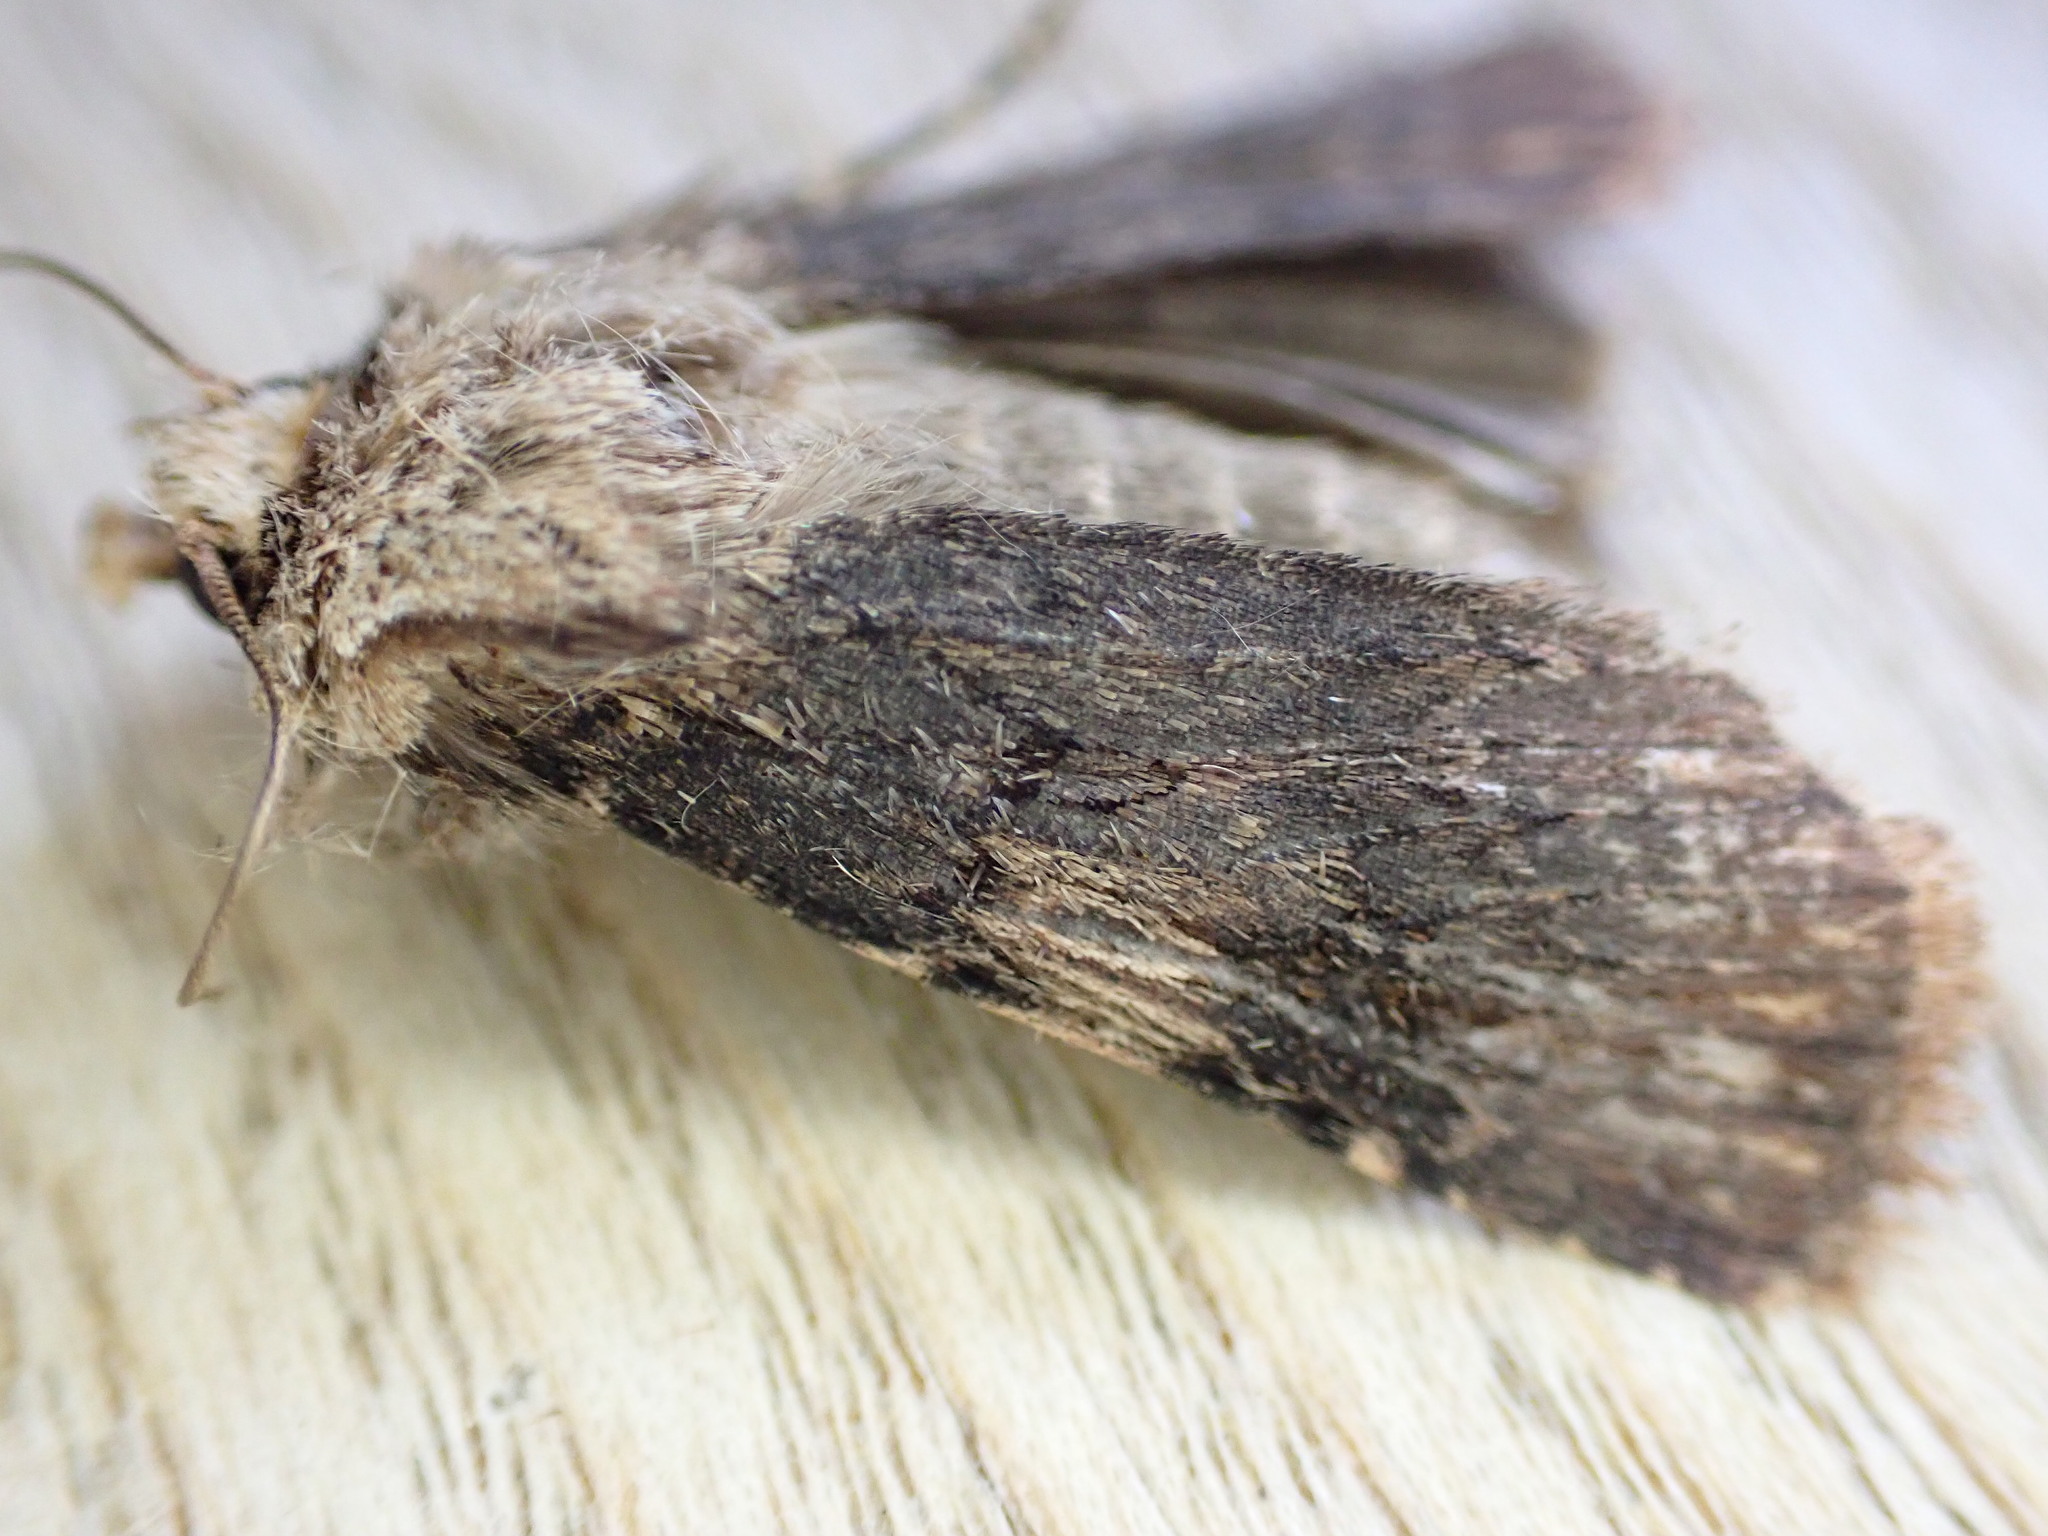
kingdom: Animalia
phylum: Arthropoda
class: Insecta
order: Lepidoptera
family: Noctuidae
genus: Agrotis
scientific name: Agrotis puta
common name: Shuttle-shaped dart
